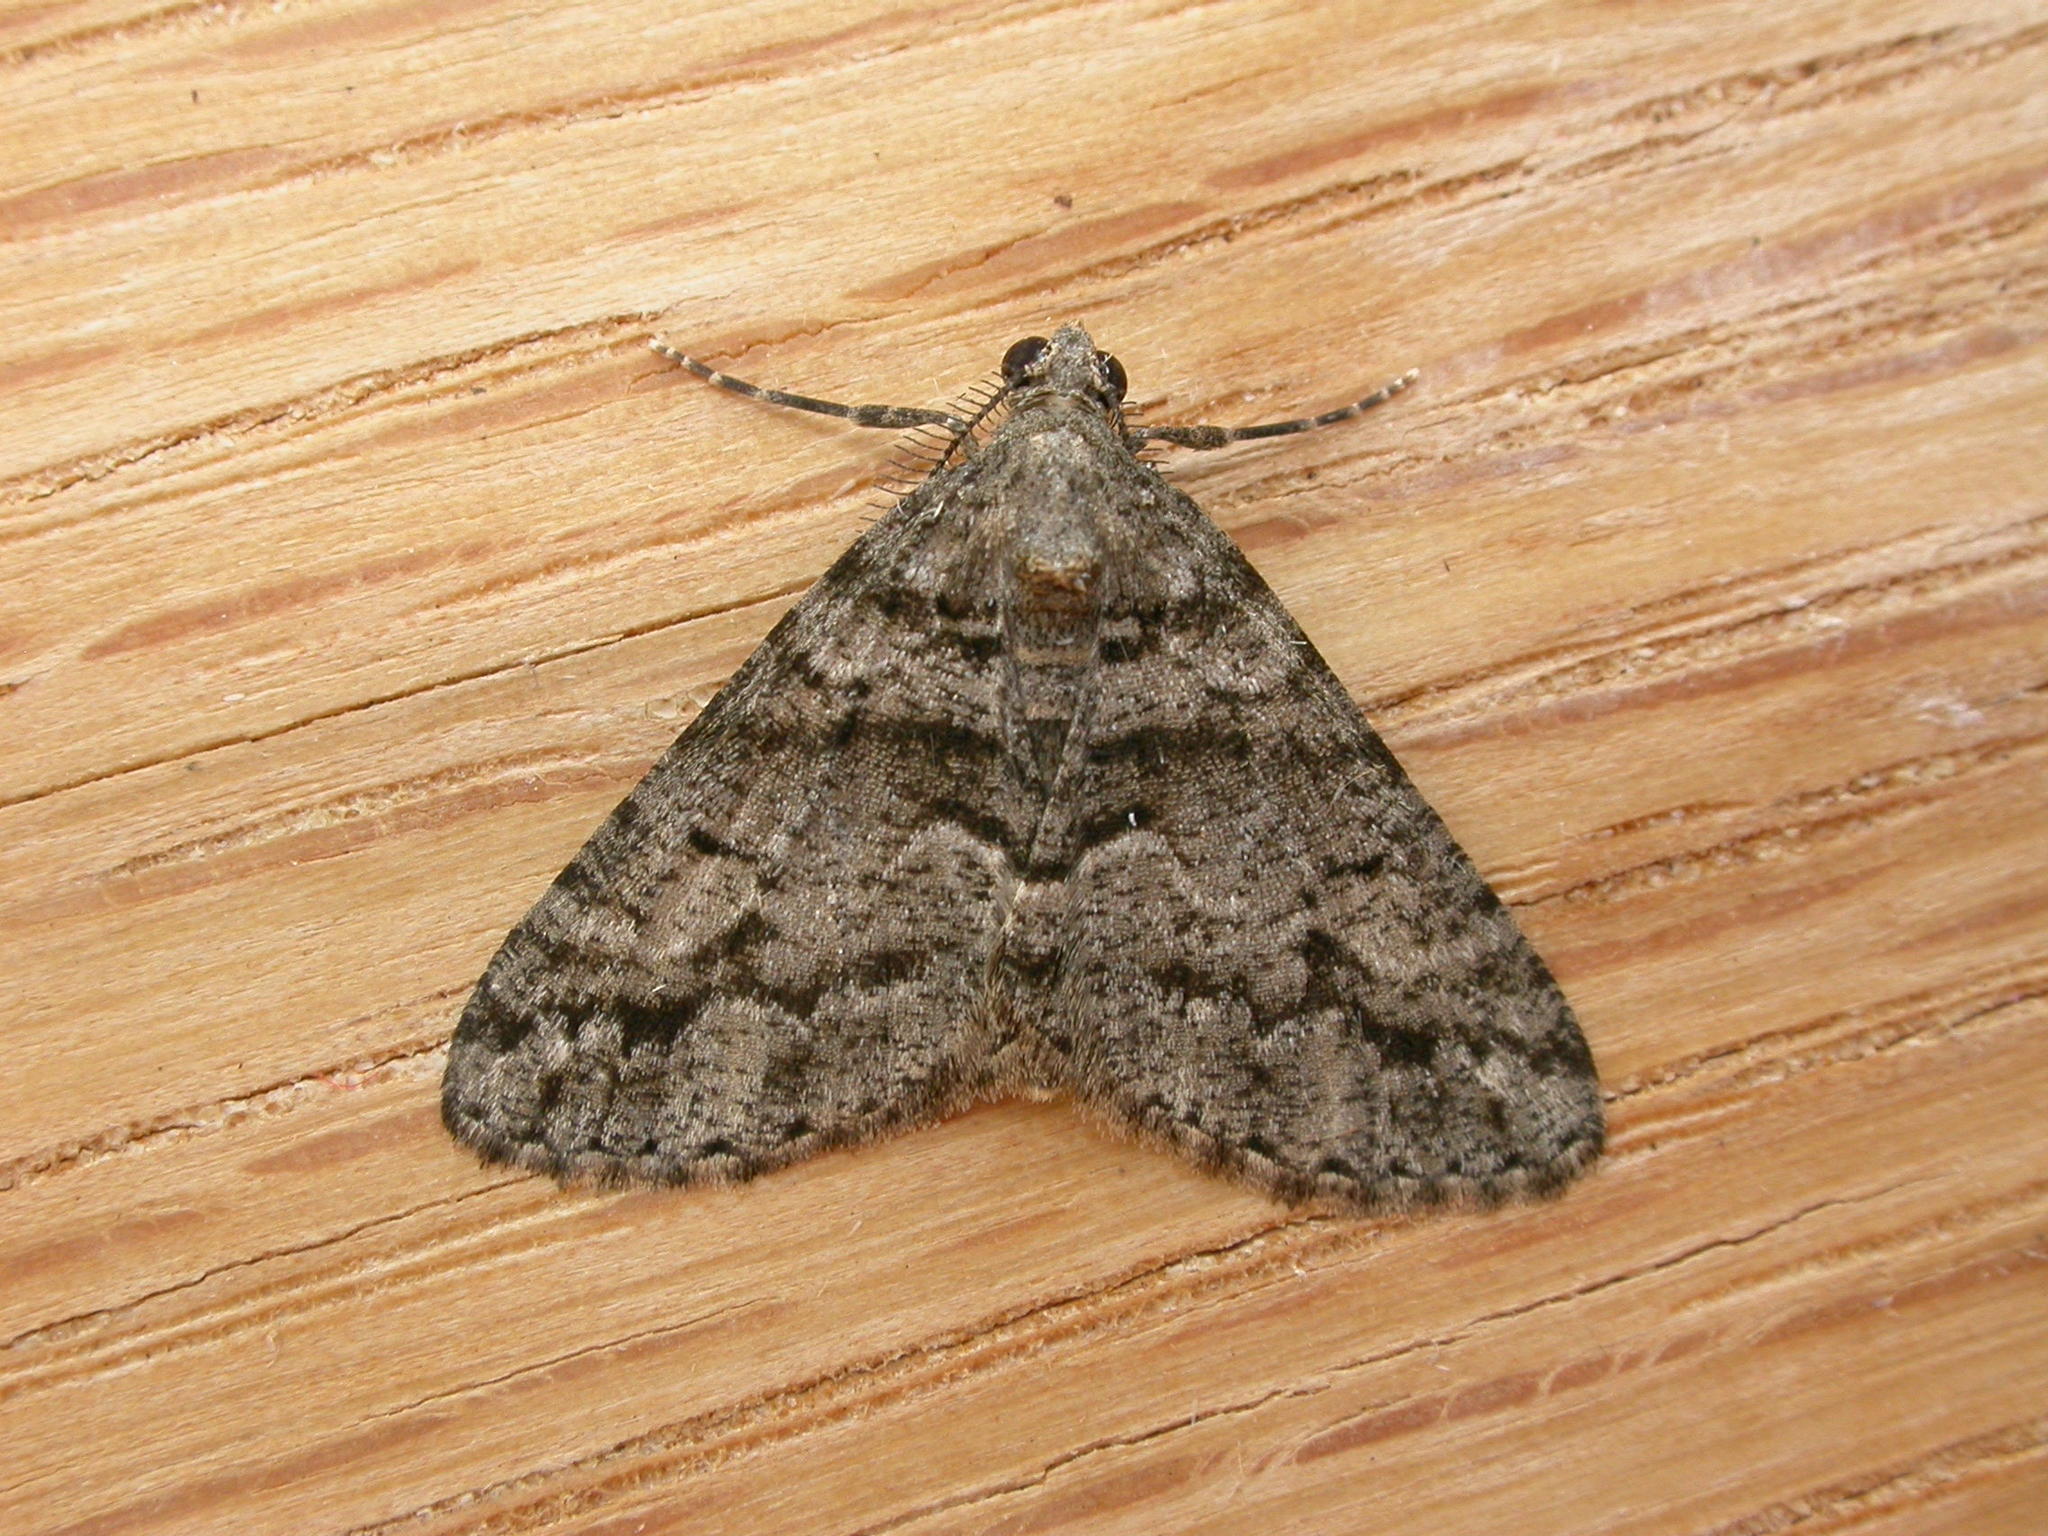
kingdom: Animalia
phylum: Arthropoda
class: Insecta
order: Lepidoptera
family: Geometridae
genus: Lipogya
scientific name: Lipogya eutheta
